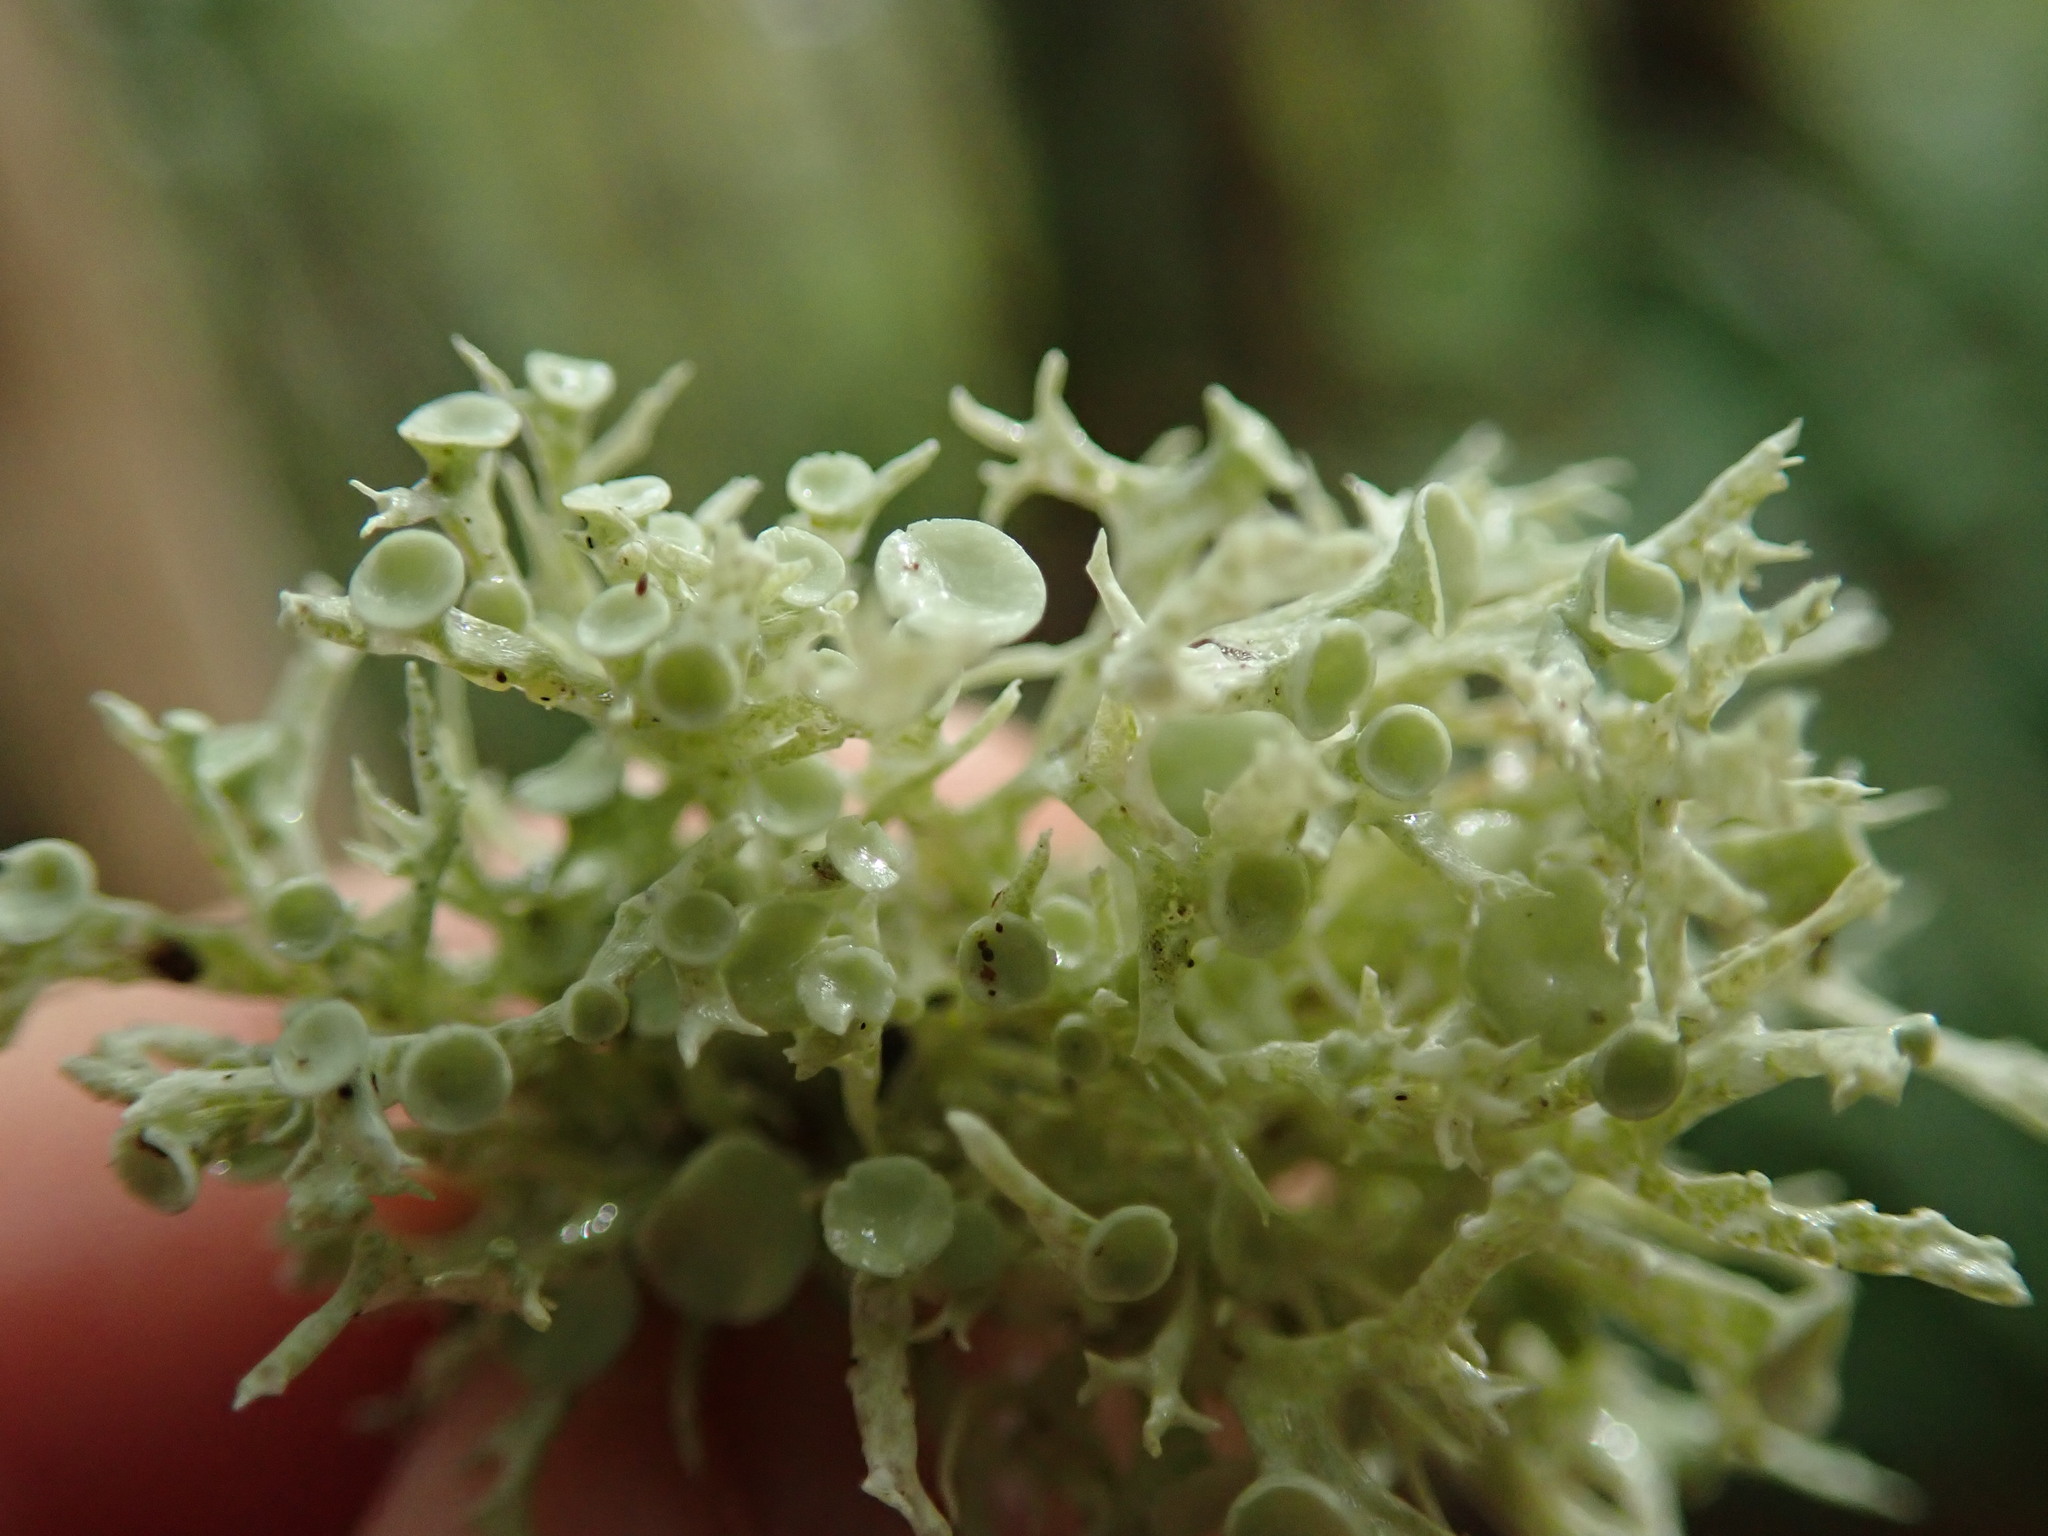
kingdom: Fungi
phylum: Ascomycota
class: Lecanoromycetes
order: Lecanorales
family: Ramalinaceae
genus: Ramalina
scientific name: Ramalina dilacerata
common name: Punctured bushy lichen
